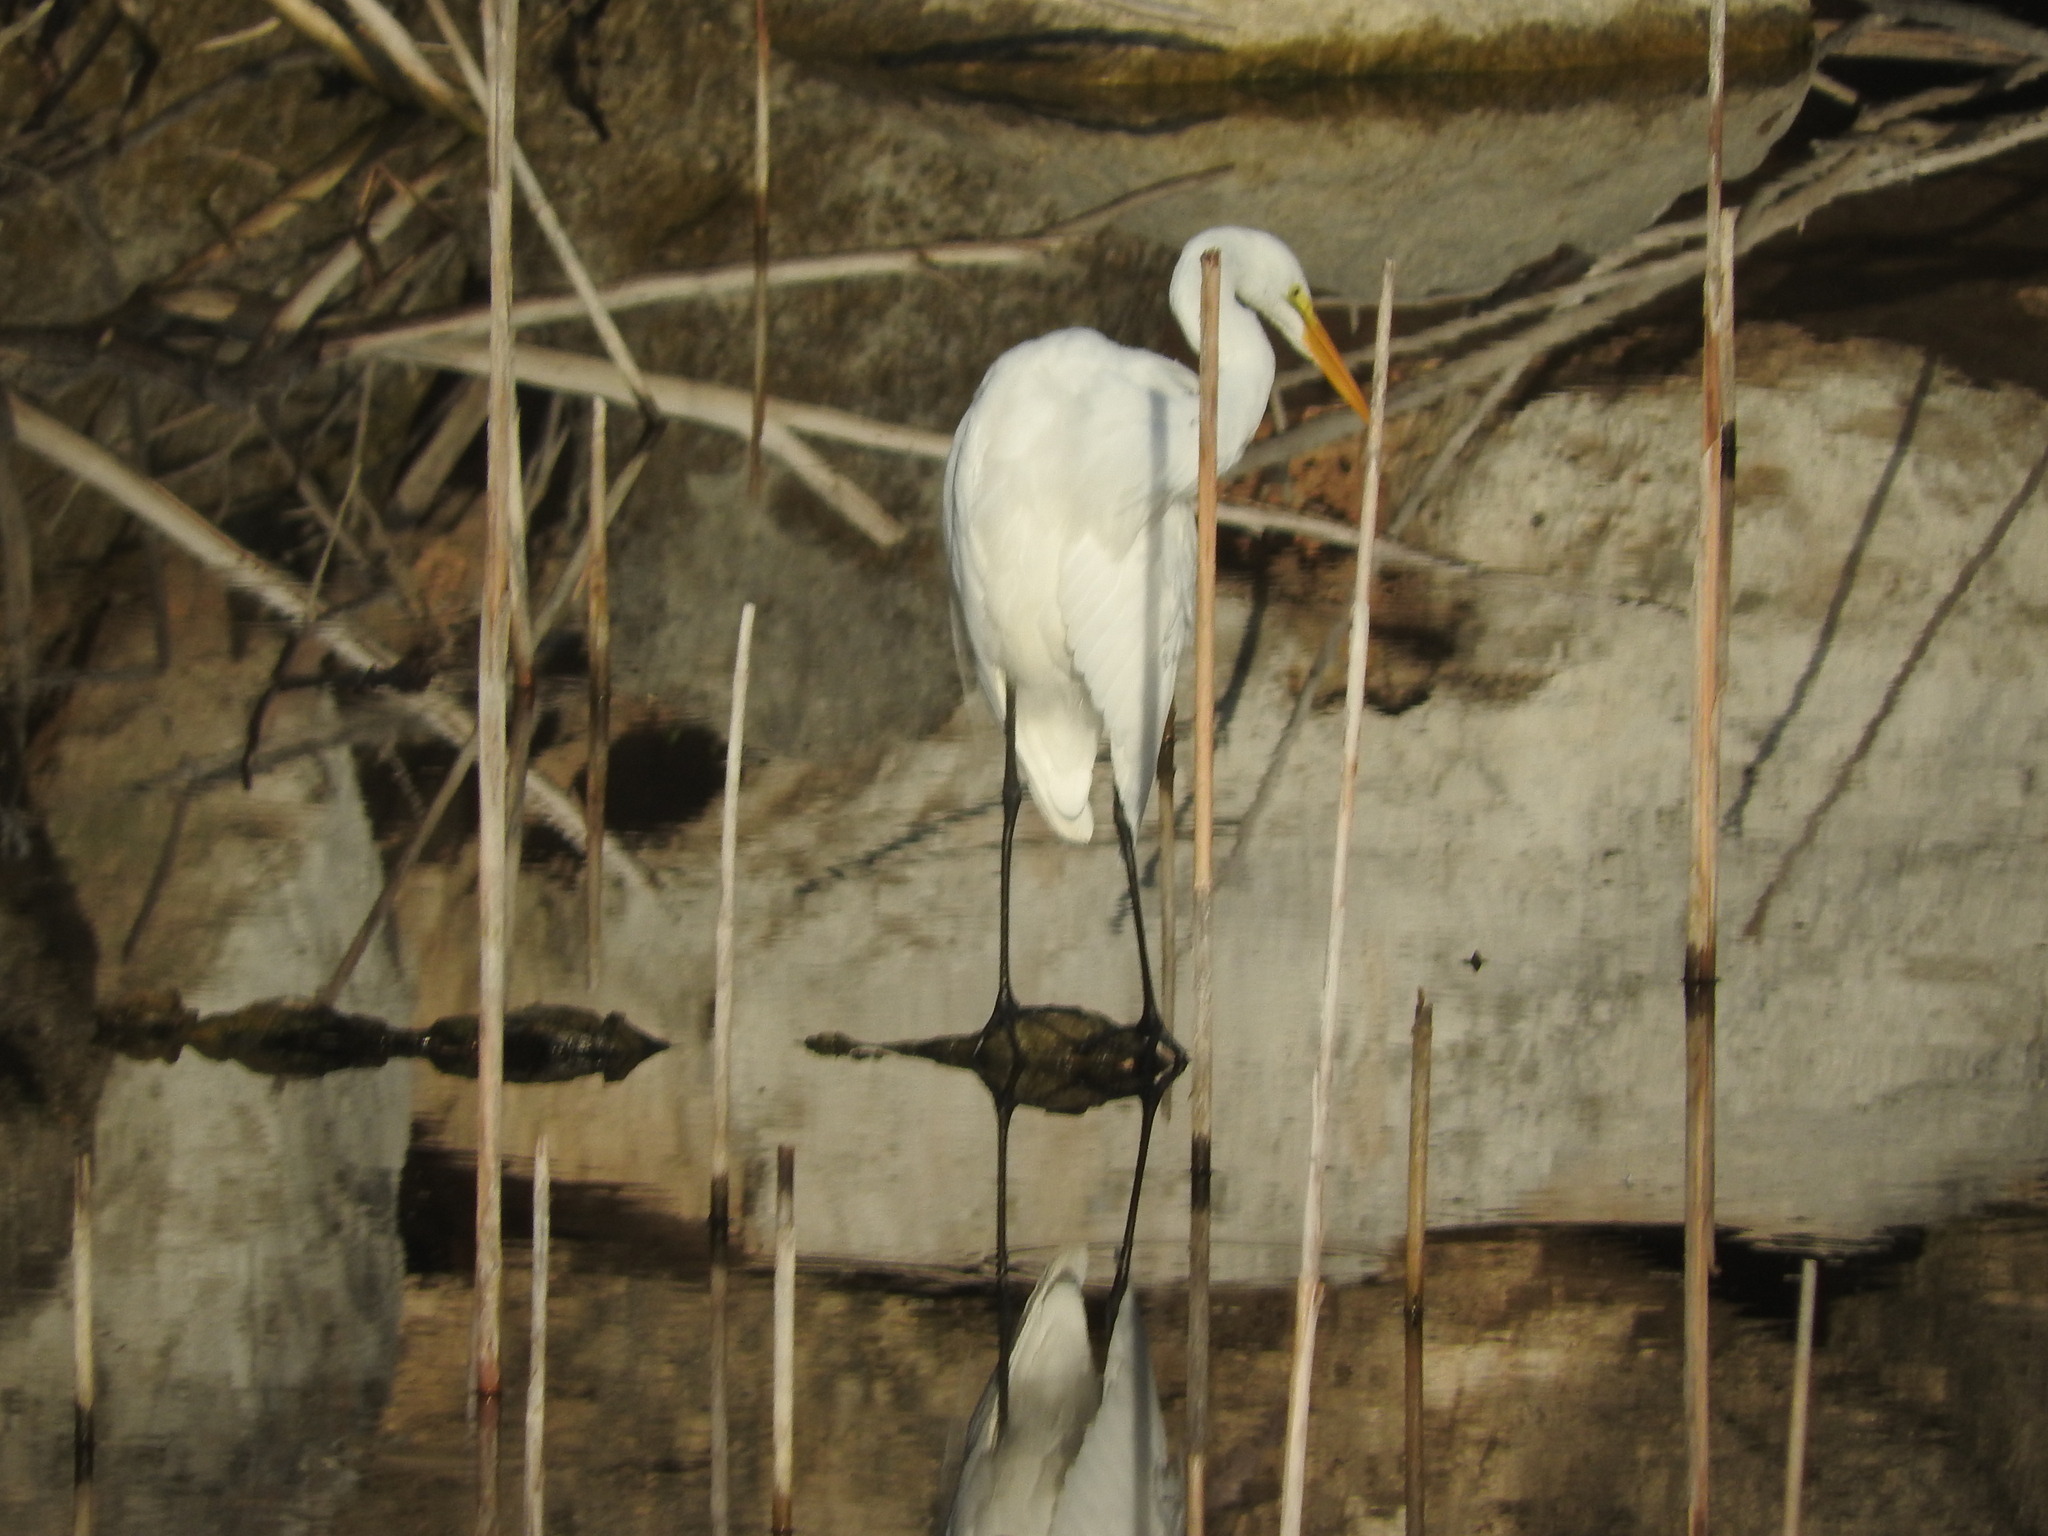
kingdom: Animalia
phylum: Chordata
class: Aves
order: Pelecaniformes
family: Ardeidae
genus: Ardea
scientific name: Ardea alba
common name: Great egret
